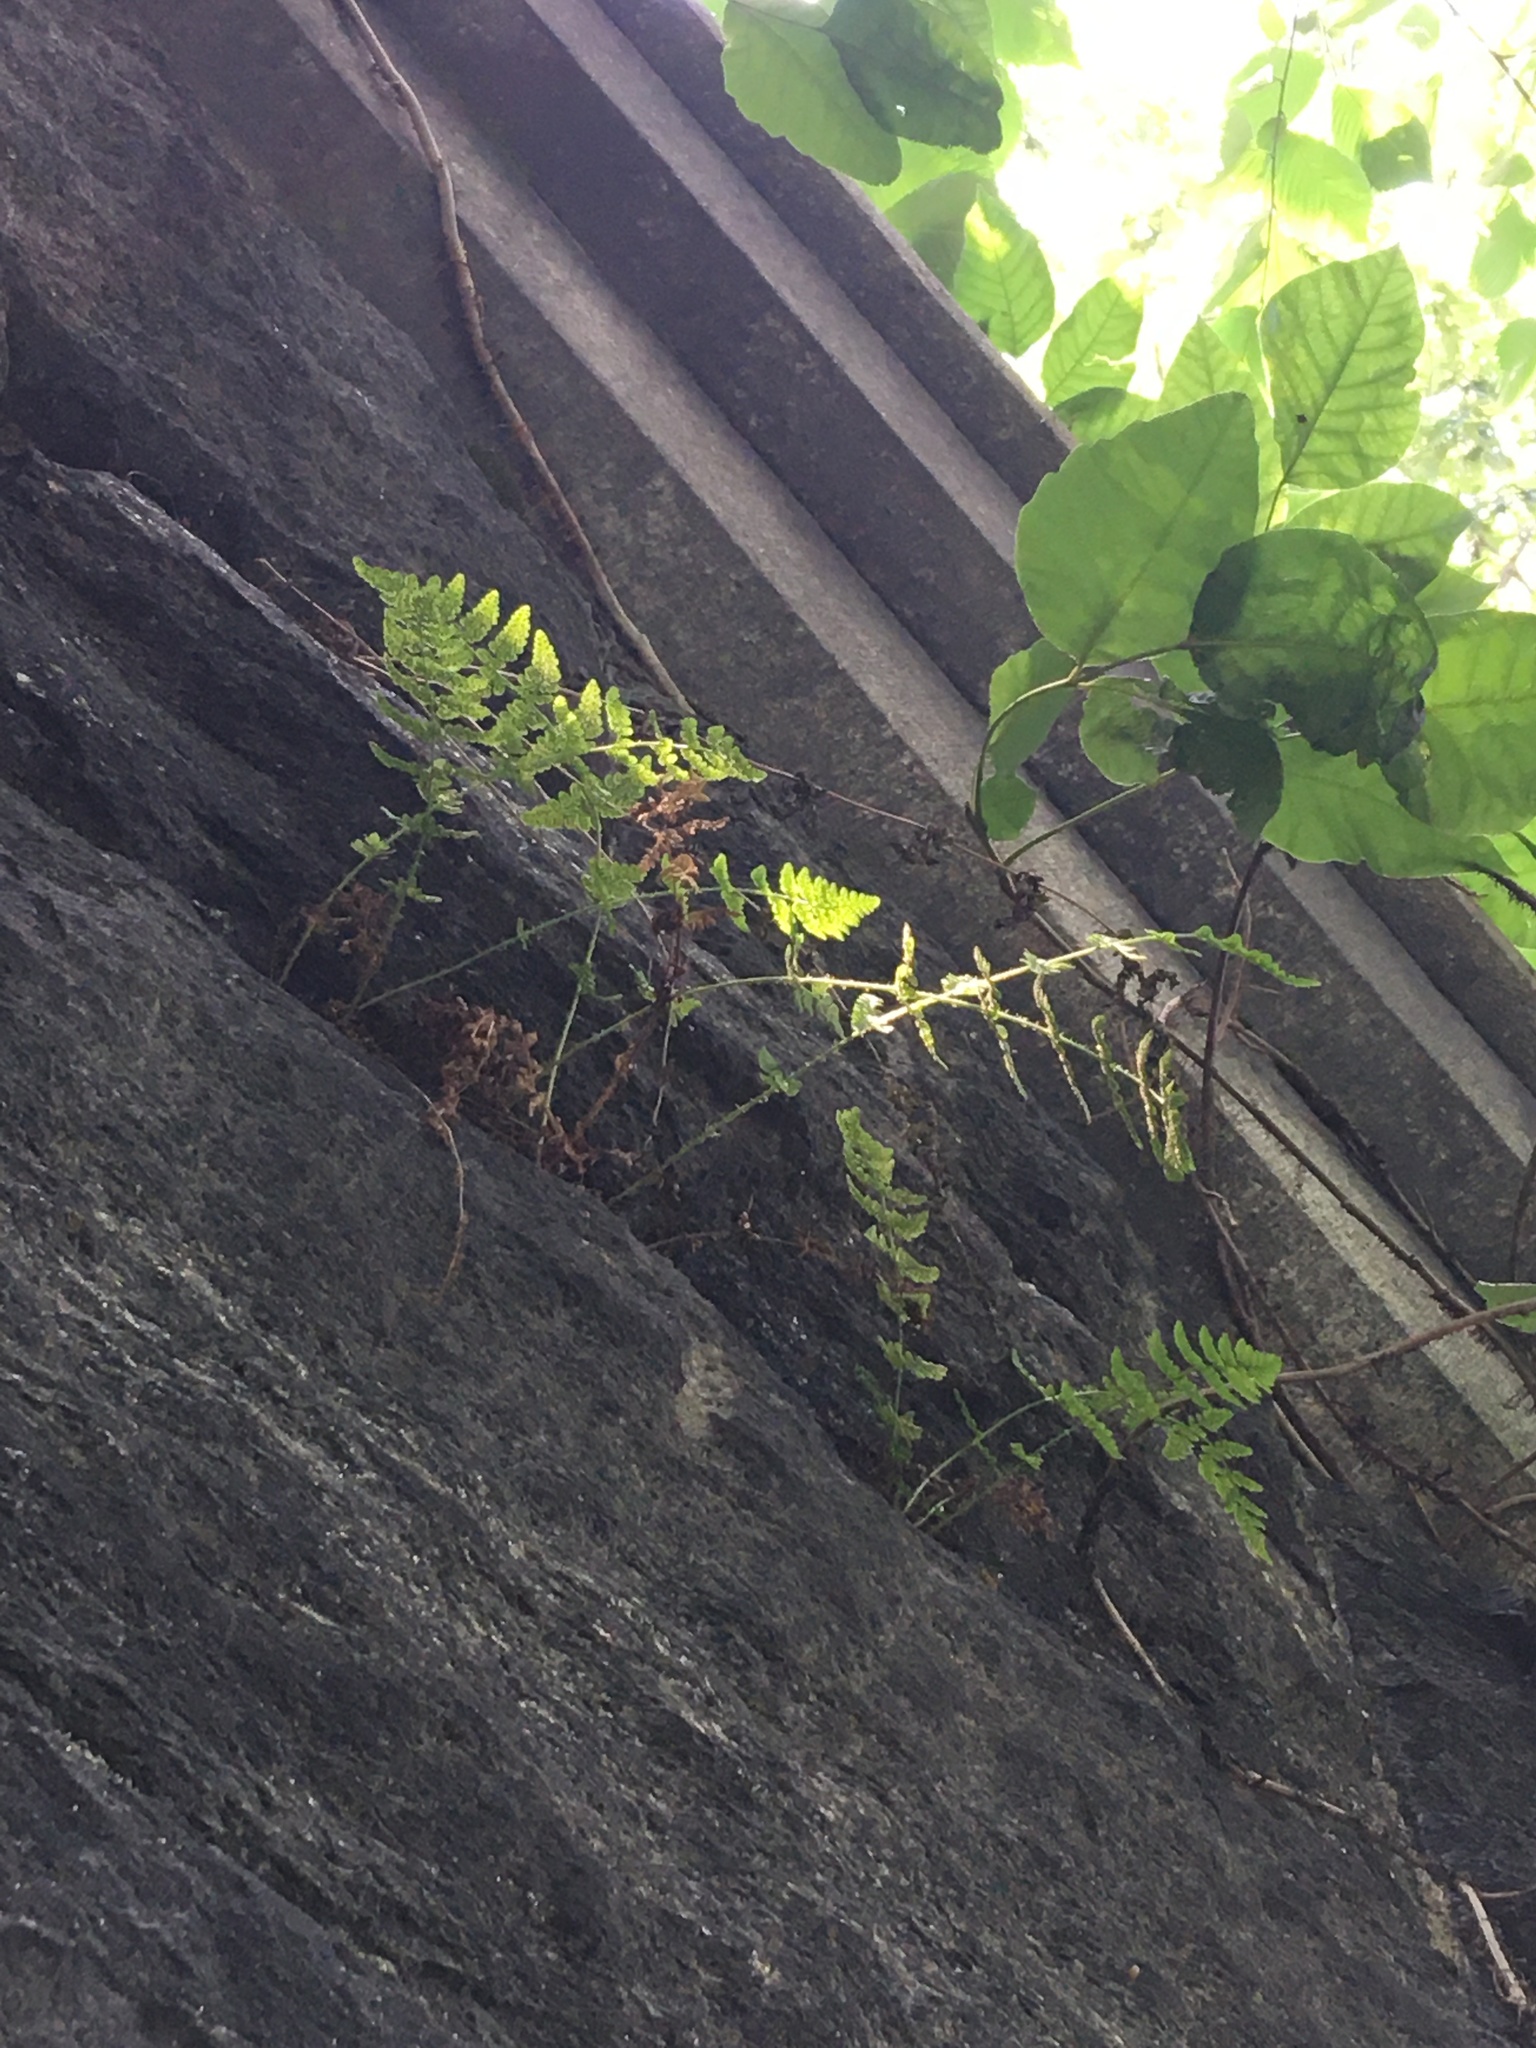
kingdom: Plantae
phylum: Tracheophyta
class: Polypodiopsida
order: Polypodiales
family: Woodsiaceae
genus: Physematium
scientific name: Physematium obtusum
